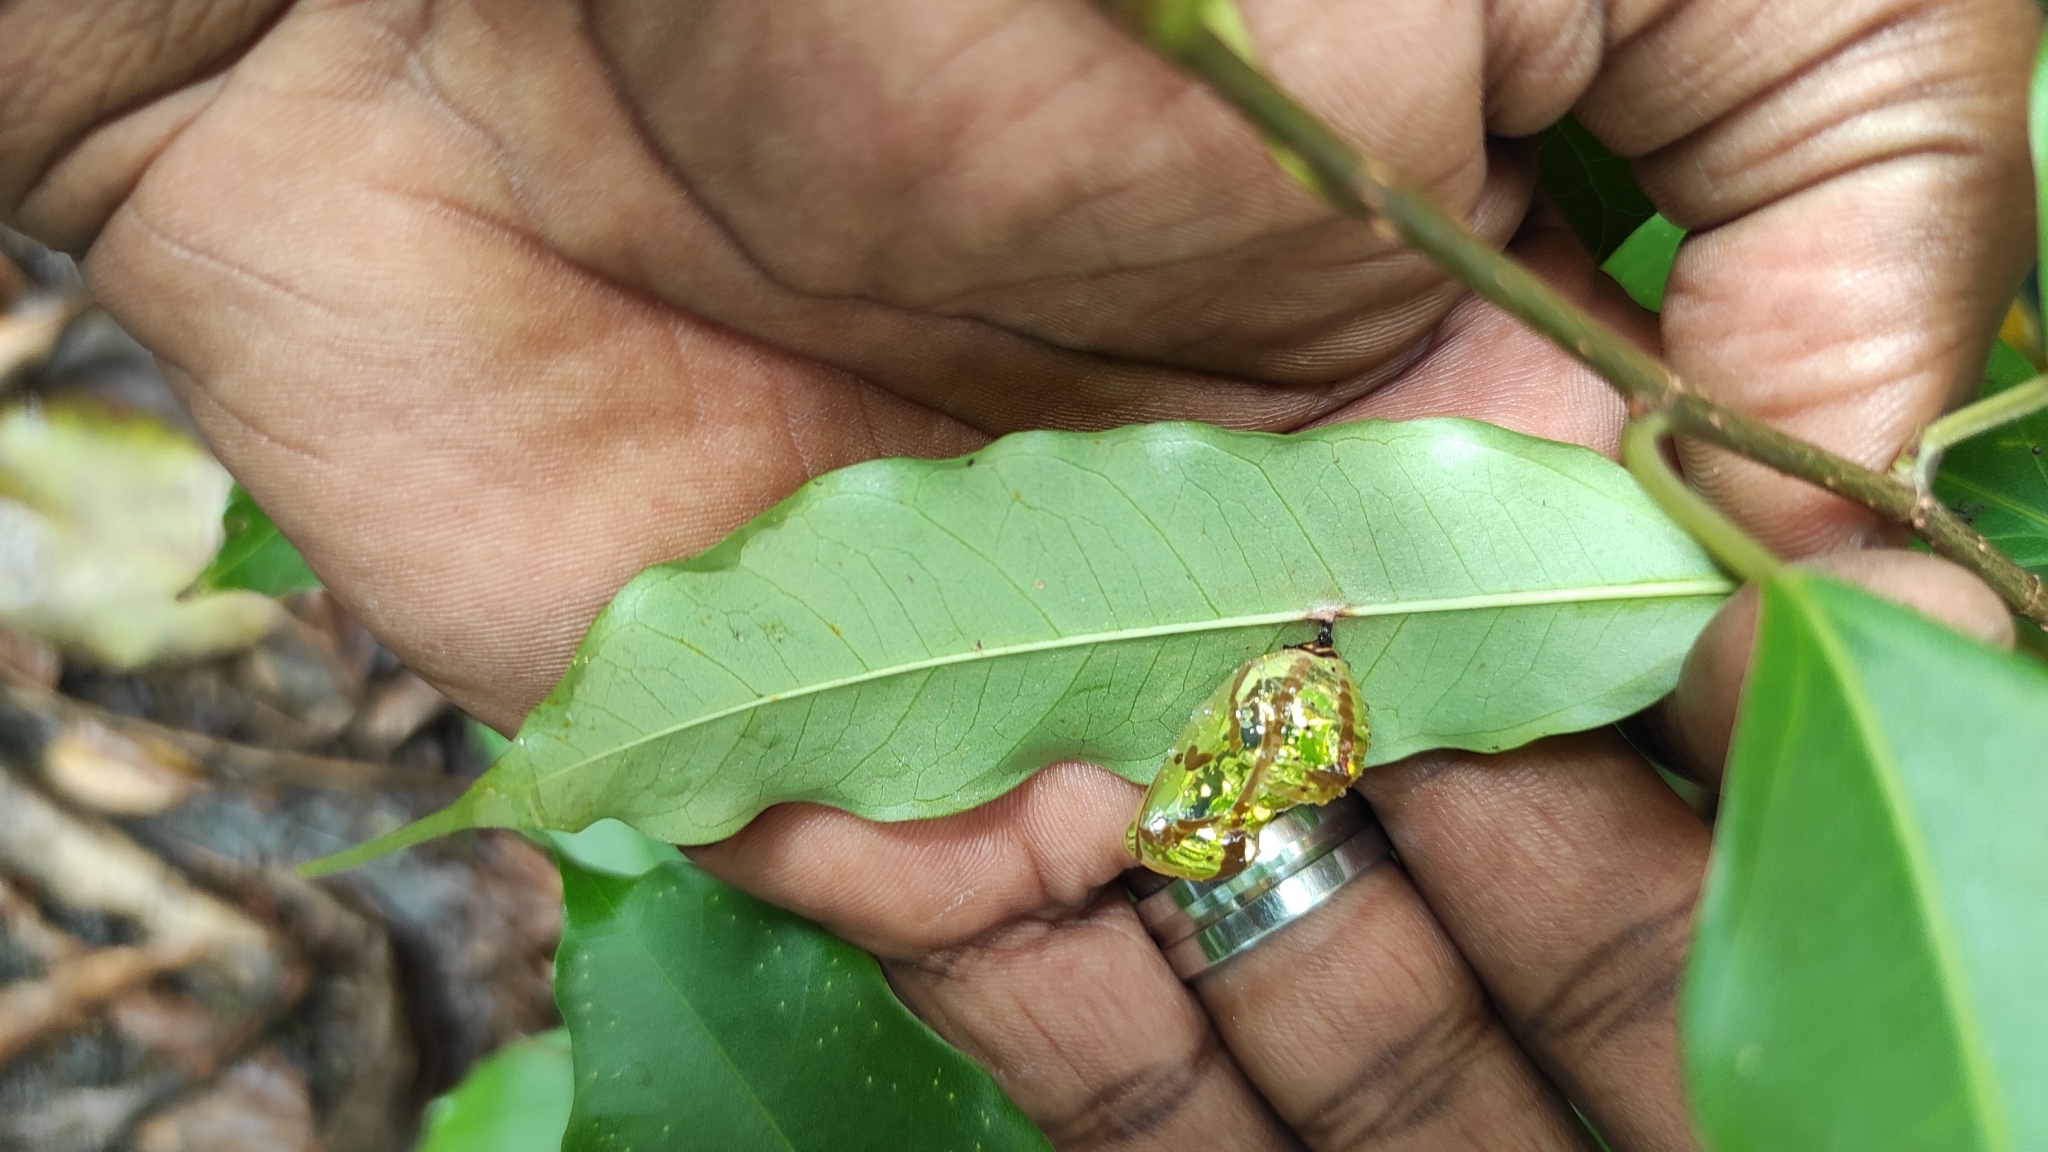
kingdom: Animalia
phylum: Arthropoda
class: Insecta
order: Lepidoptera
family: Nymphalidae
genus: Euploea
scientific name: Euploea core
